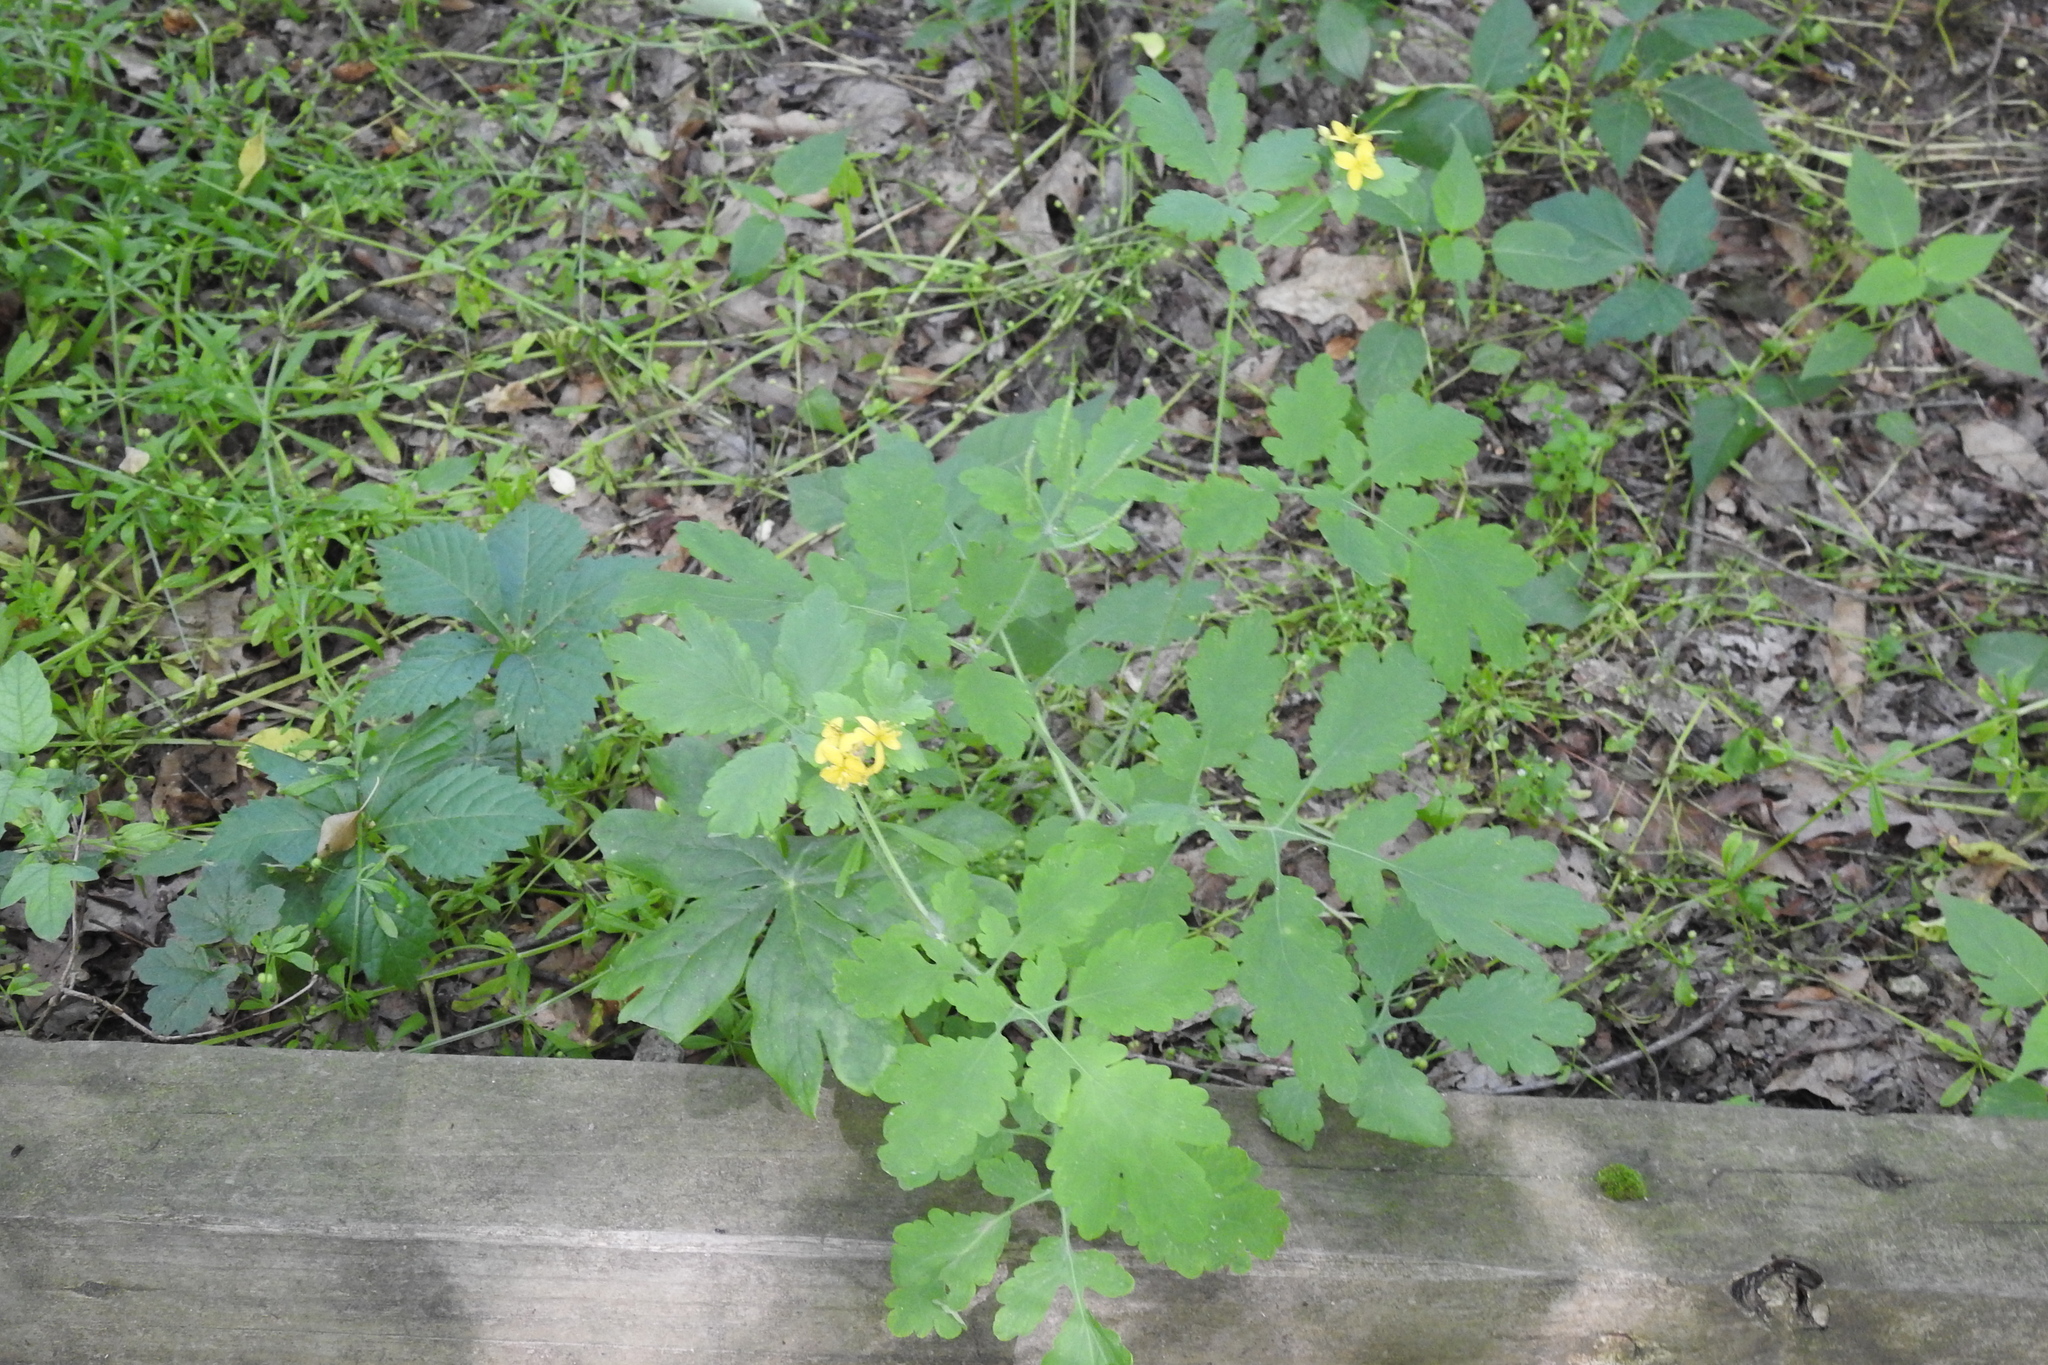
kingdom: Plantae
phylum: Tracheophyta
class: Magnoliopsida
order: Ranunculales
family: Papaveraceae
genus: Chelidonium
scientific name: Chelidonium majus
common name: Greater celandine
